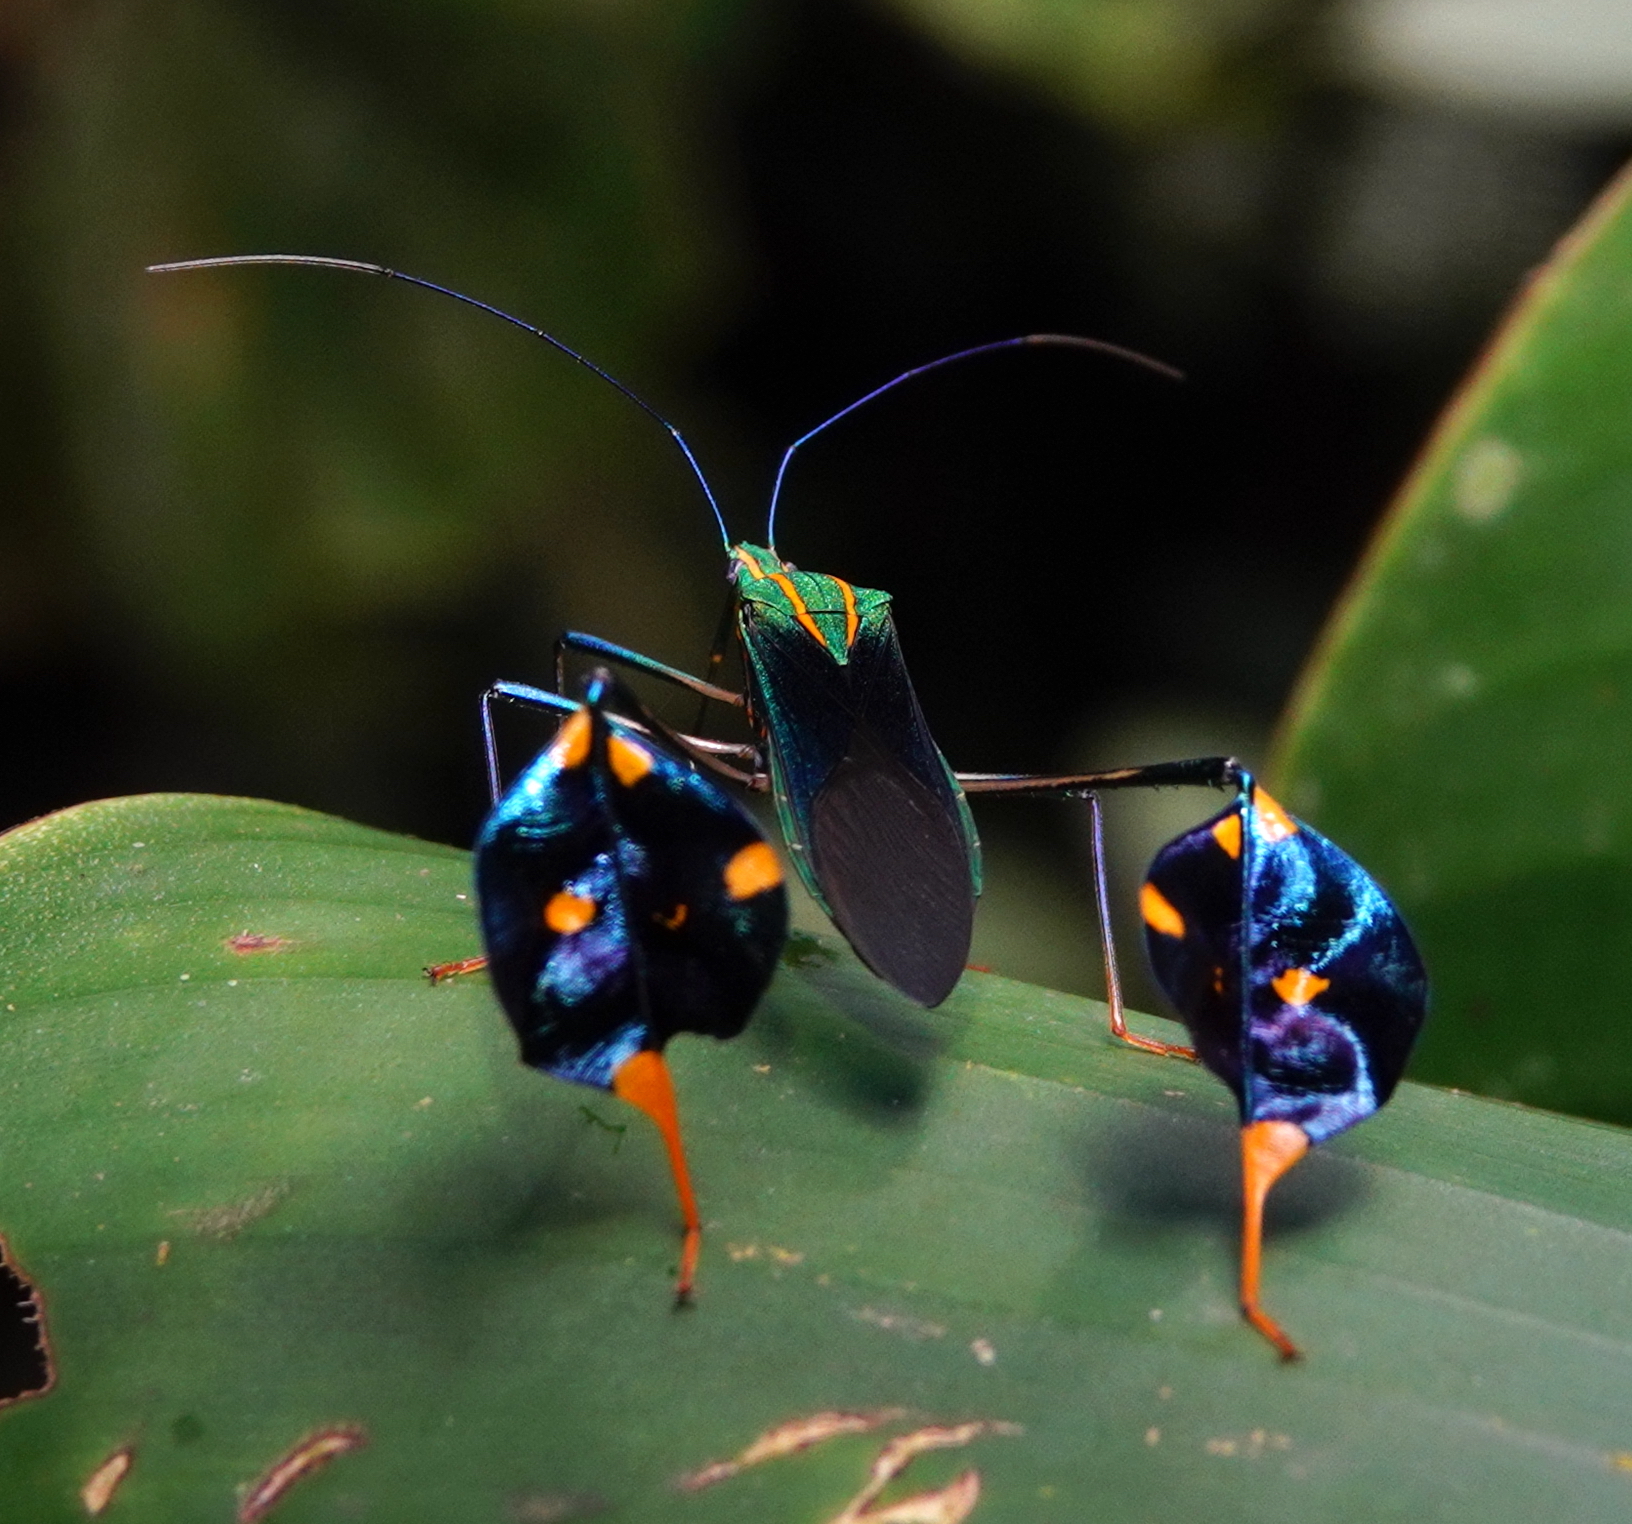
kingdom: Animalia
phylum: Arthropoda
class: Insecta
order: Hemiptera
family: Coreidae
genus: Diactor
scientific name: Diactor bilineatus
